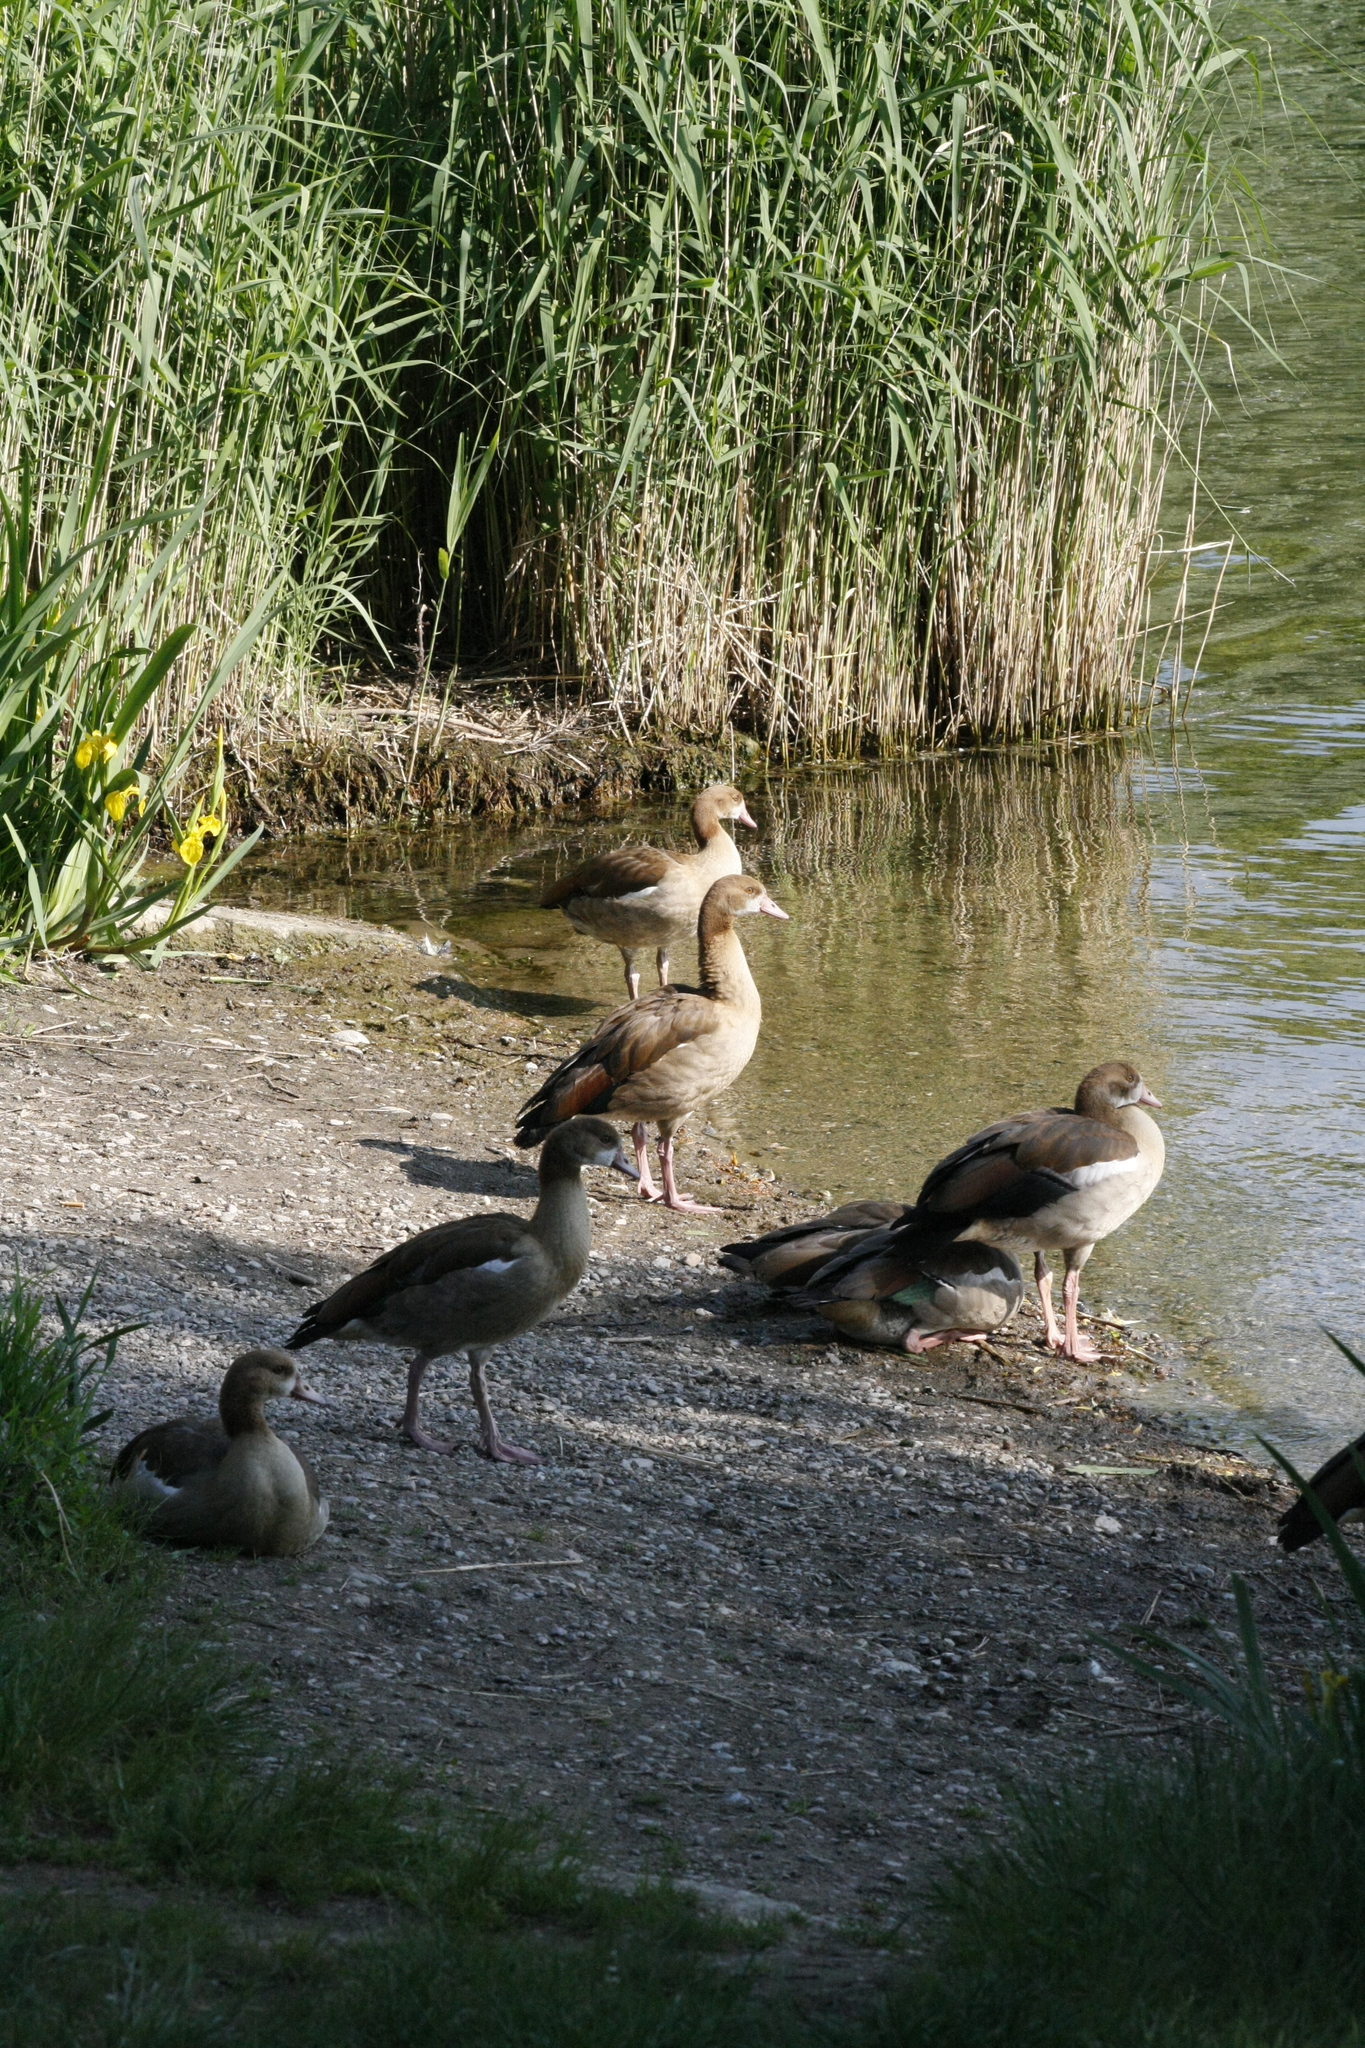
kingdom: Animalia
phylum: Chordata
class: Aves
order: Anseriformes
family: Anatidae
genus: Alopochen
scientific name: Alopochen aegyptiaca
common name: Egyptian goose
